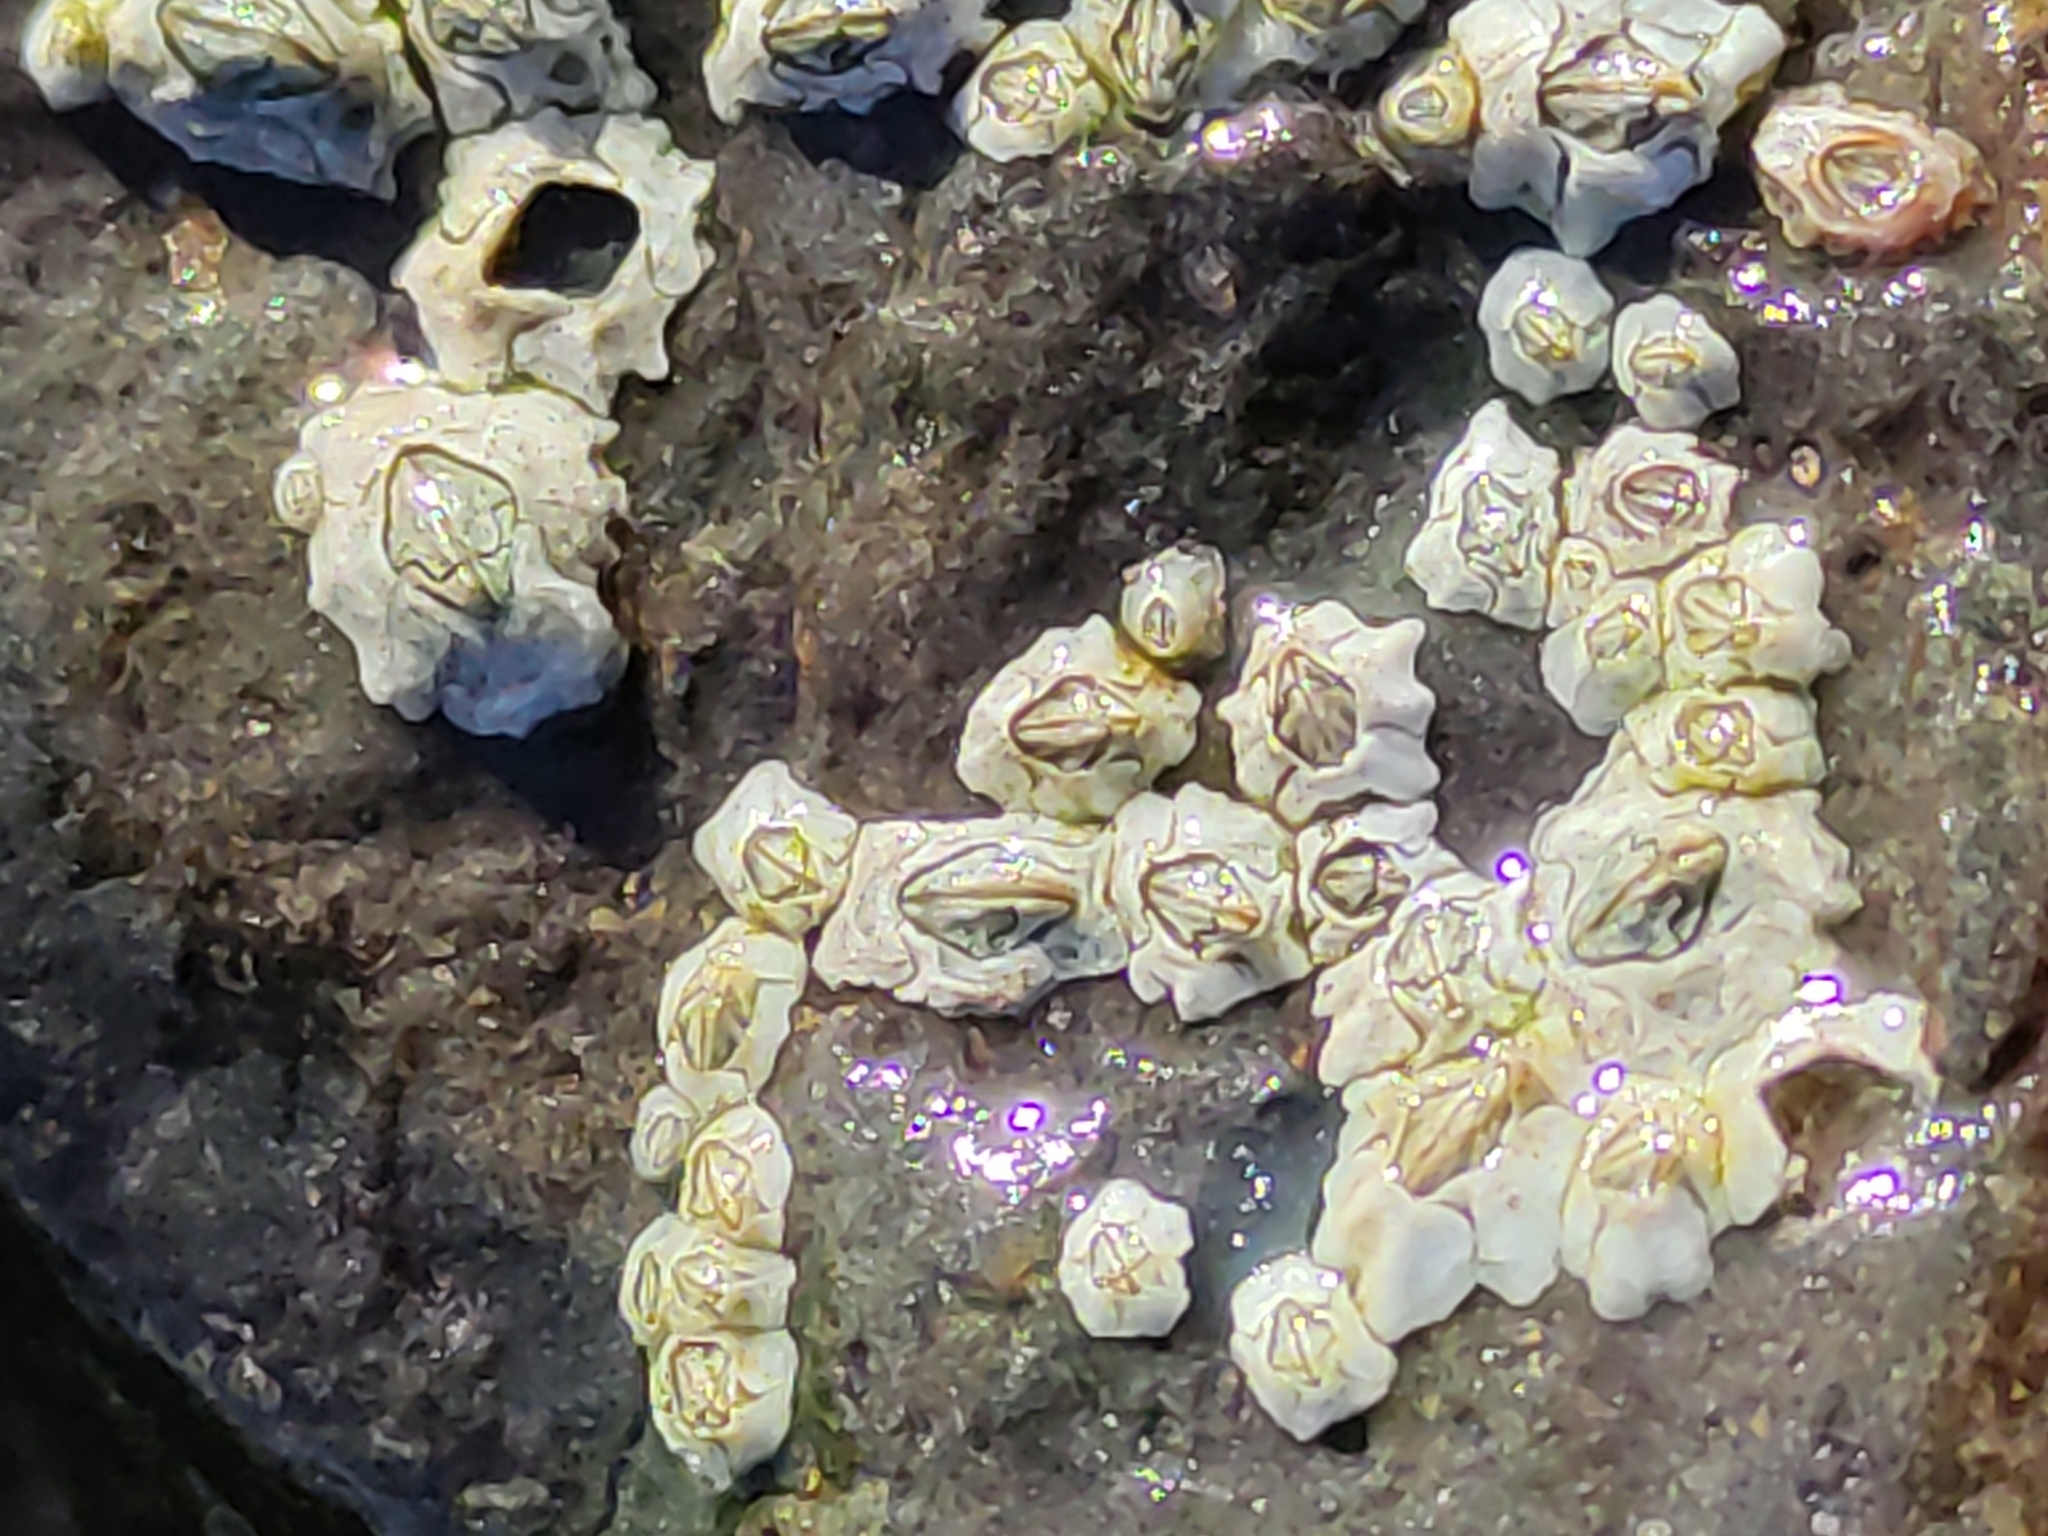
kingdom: Animalia
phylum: Arthropoda
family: Elminiidae
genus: Austrominius
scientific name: Austrominius modestus
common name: Australasian barnacle
